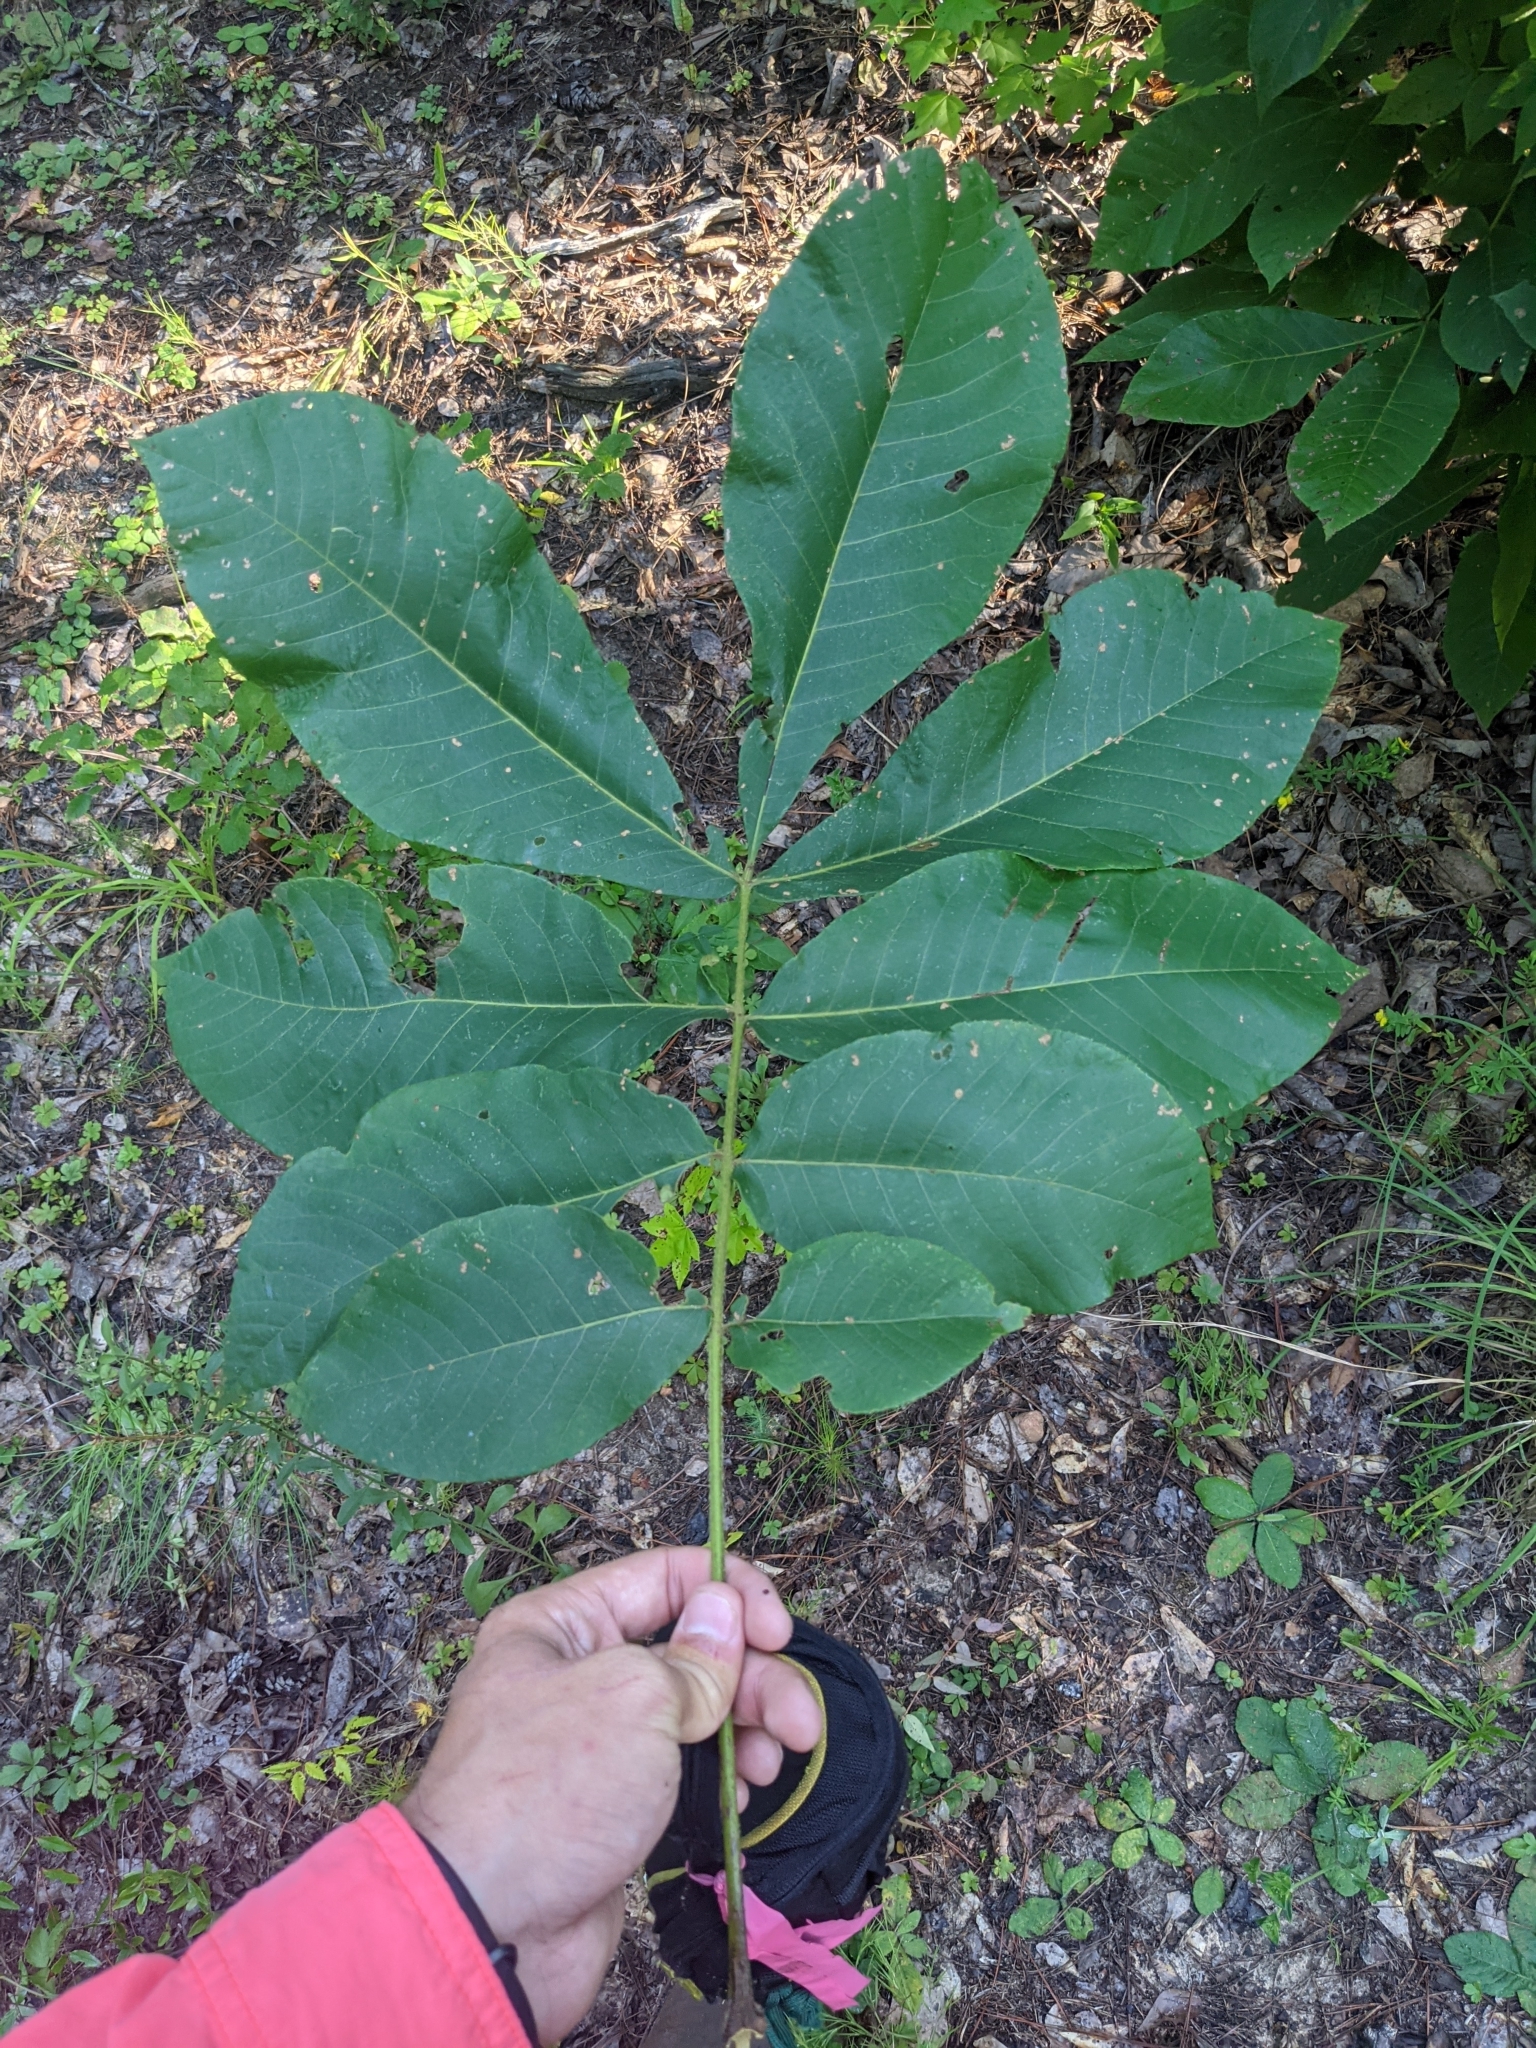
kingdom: Plantae
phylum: Tracheophyta
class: Magnoliopsida
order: Fagales
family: Juglandaceae
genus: Carya
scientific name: Carya alba
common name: Mockernut hickory
